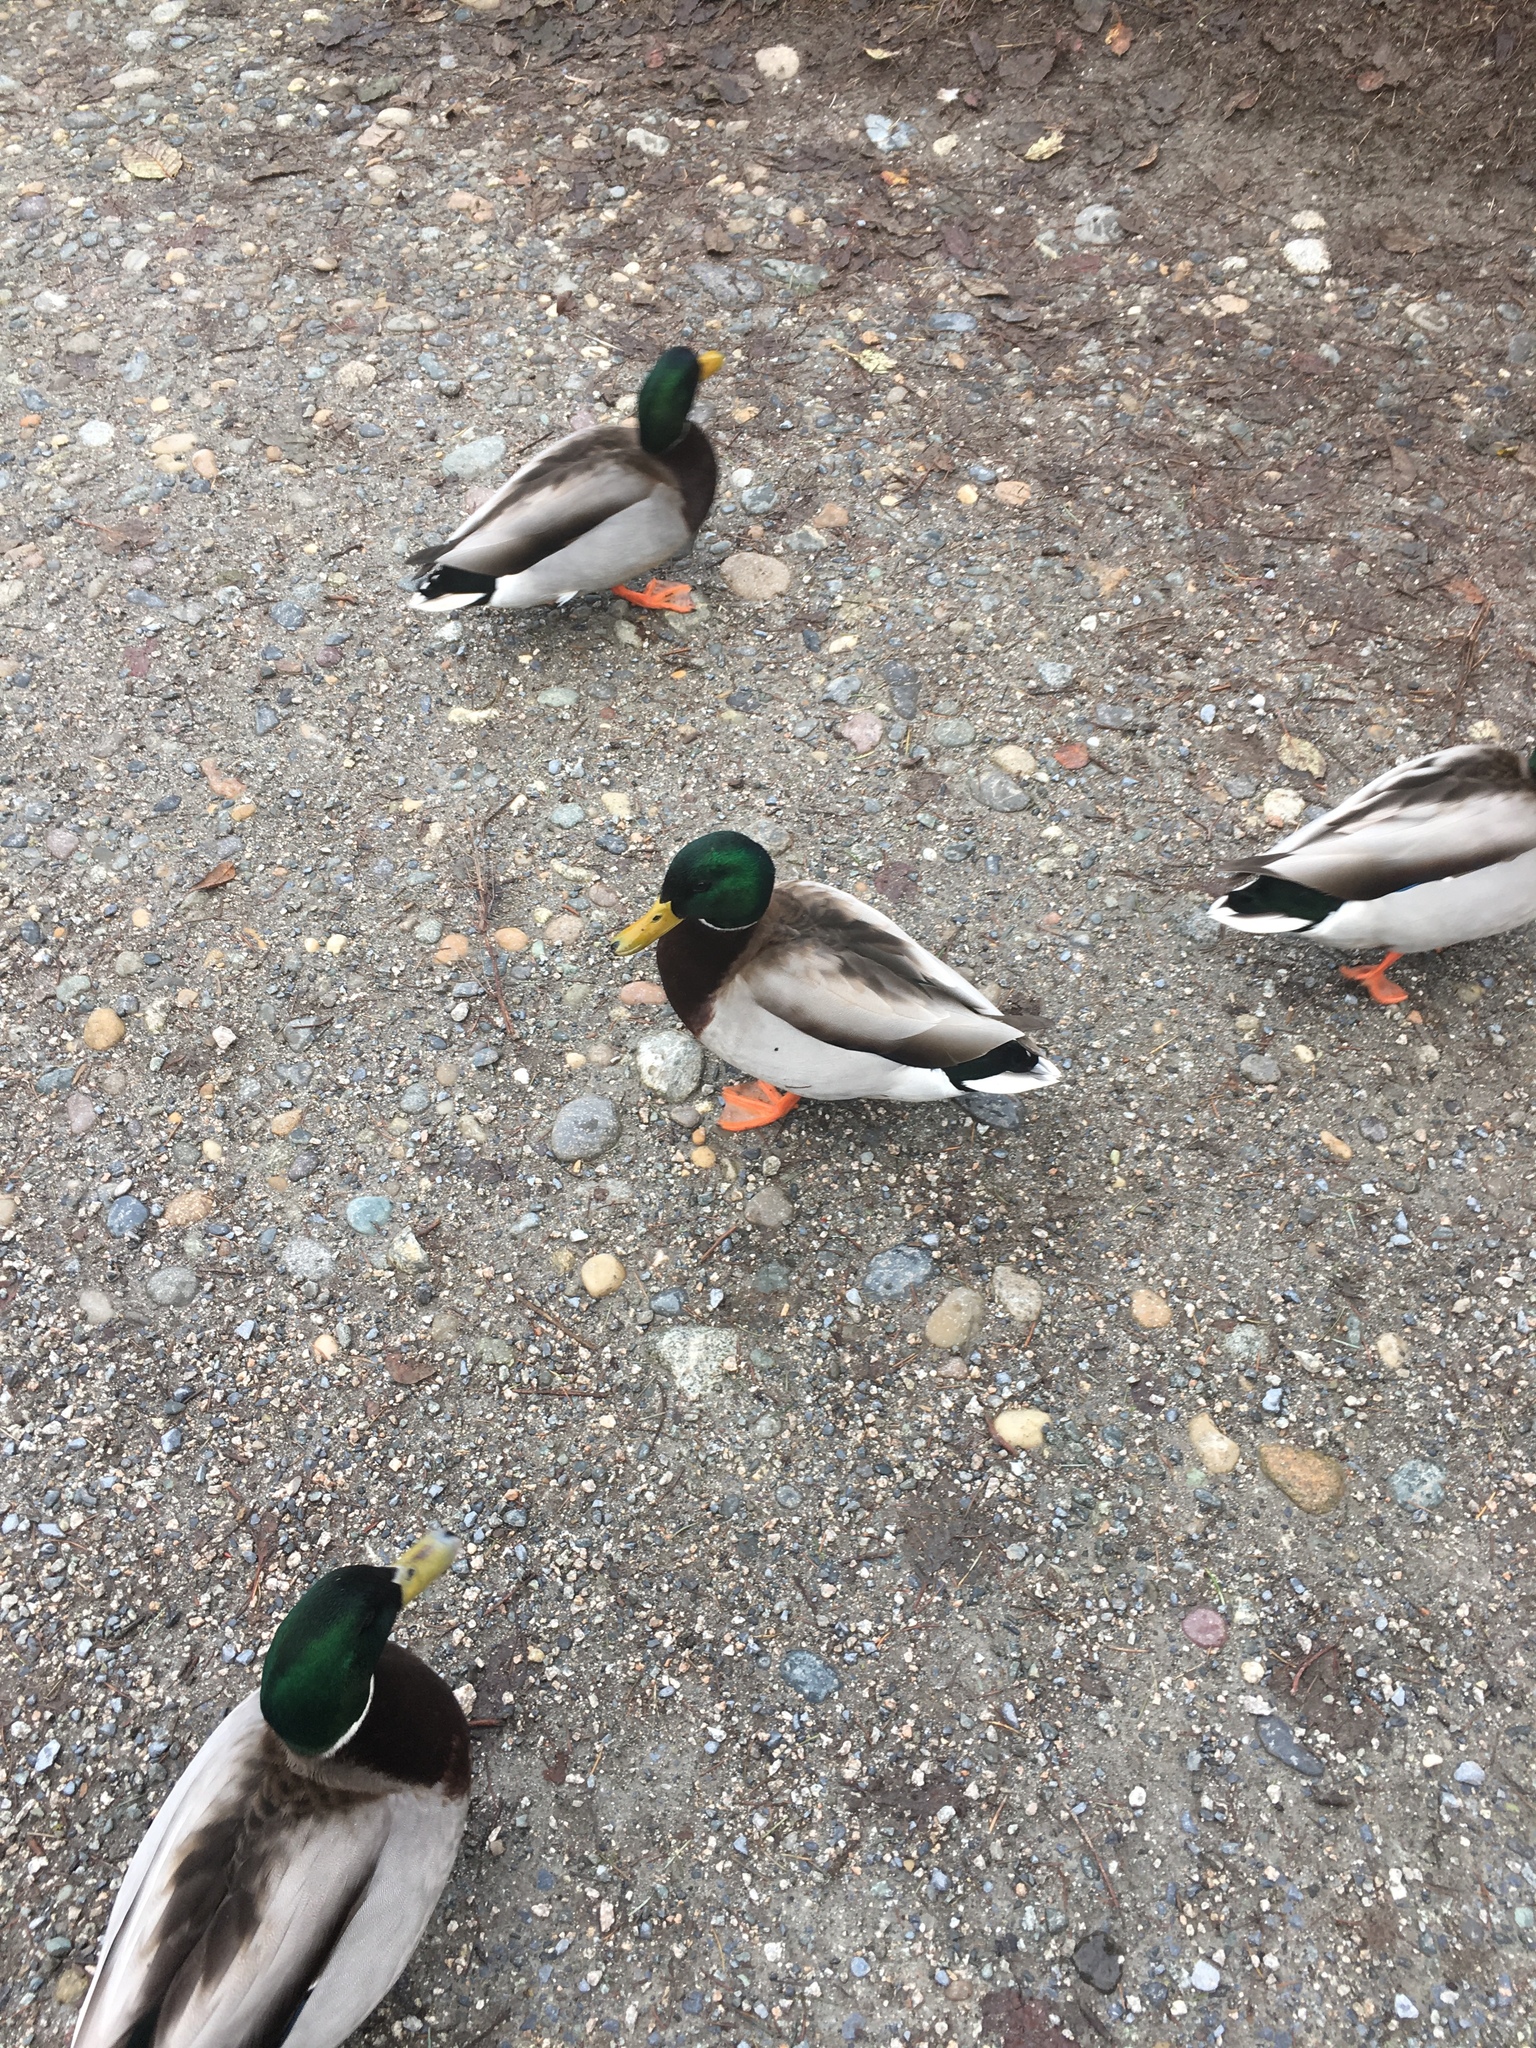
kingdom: Animalia
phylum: Chordata
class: Aves
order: Anseriformes
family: Anatidae
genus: Anas
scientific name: Anas platyrhynchos
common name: Mallard
